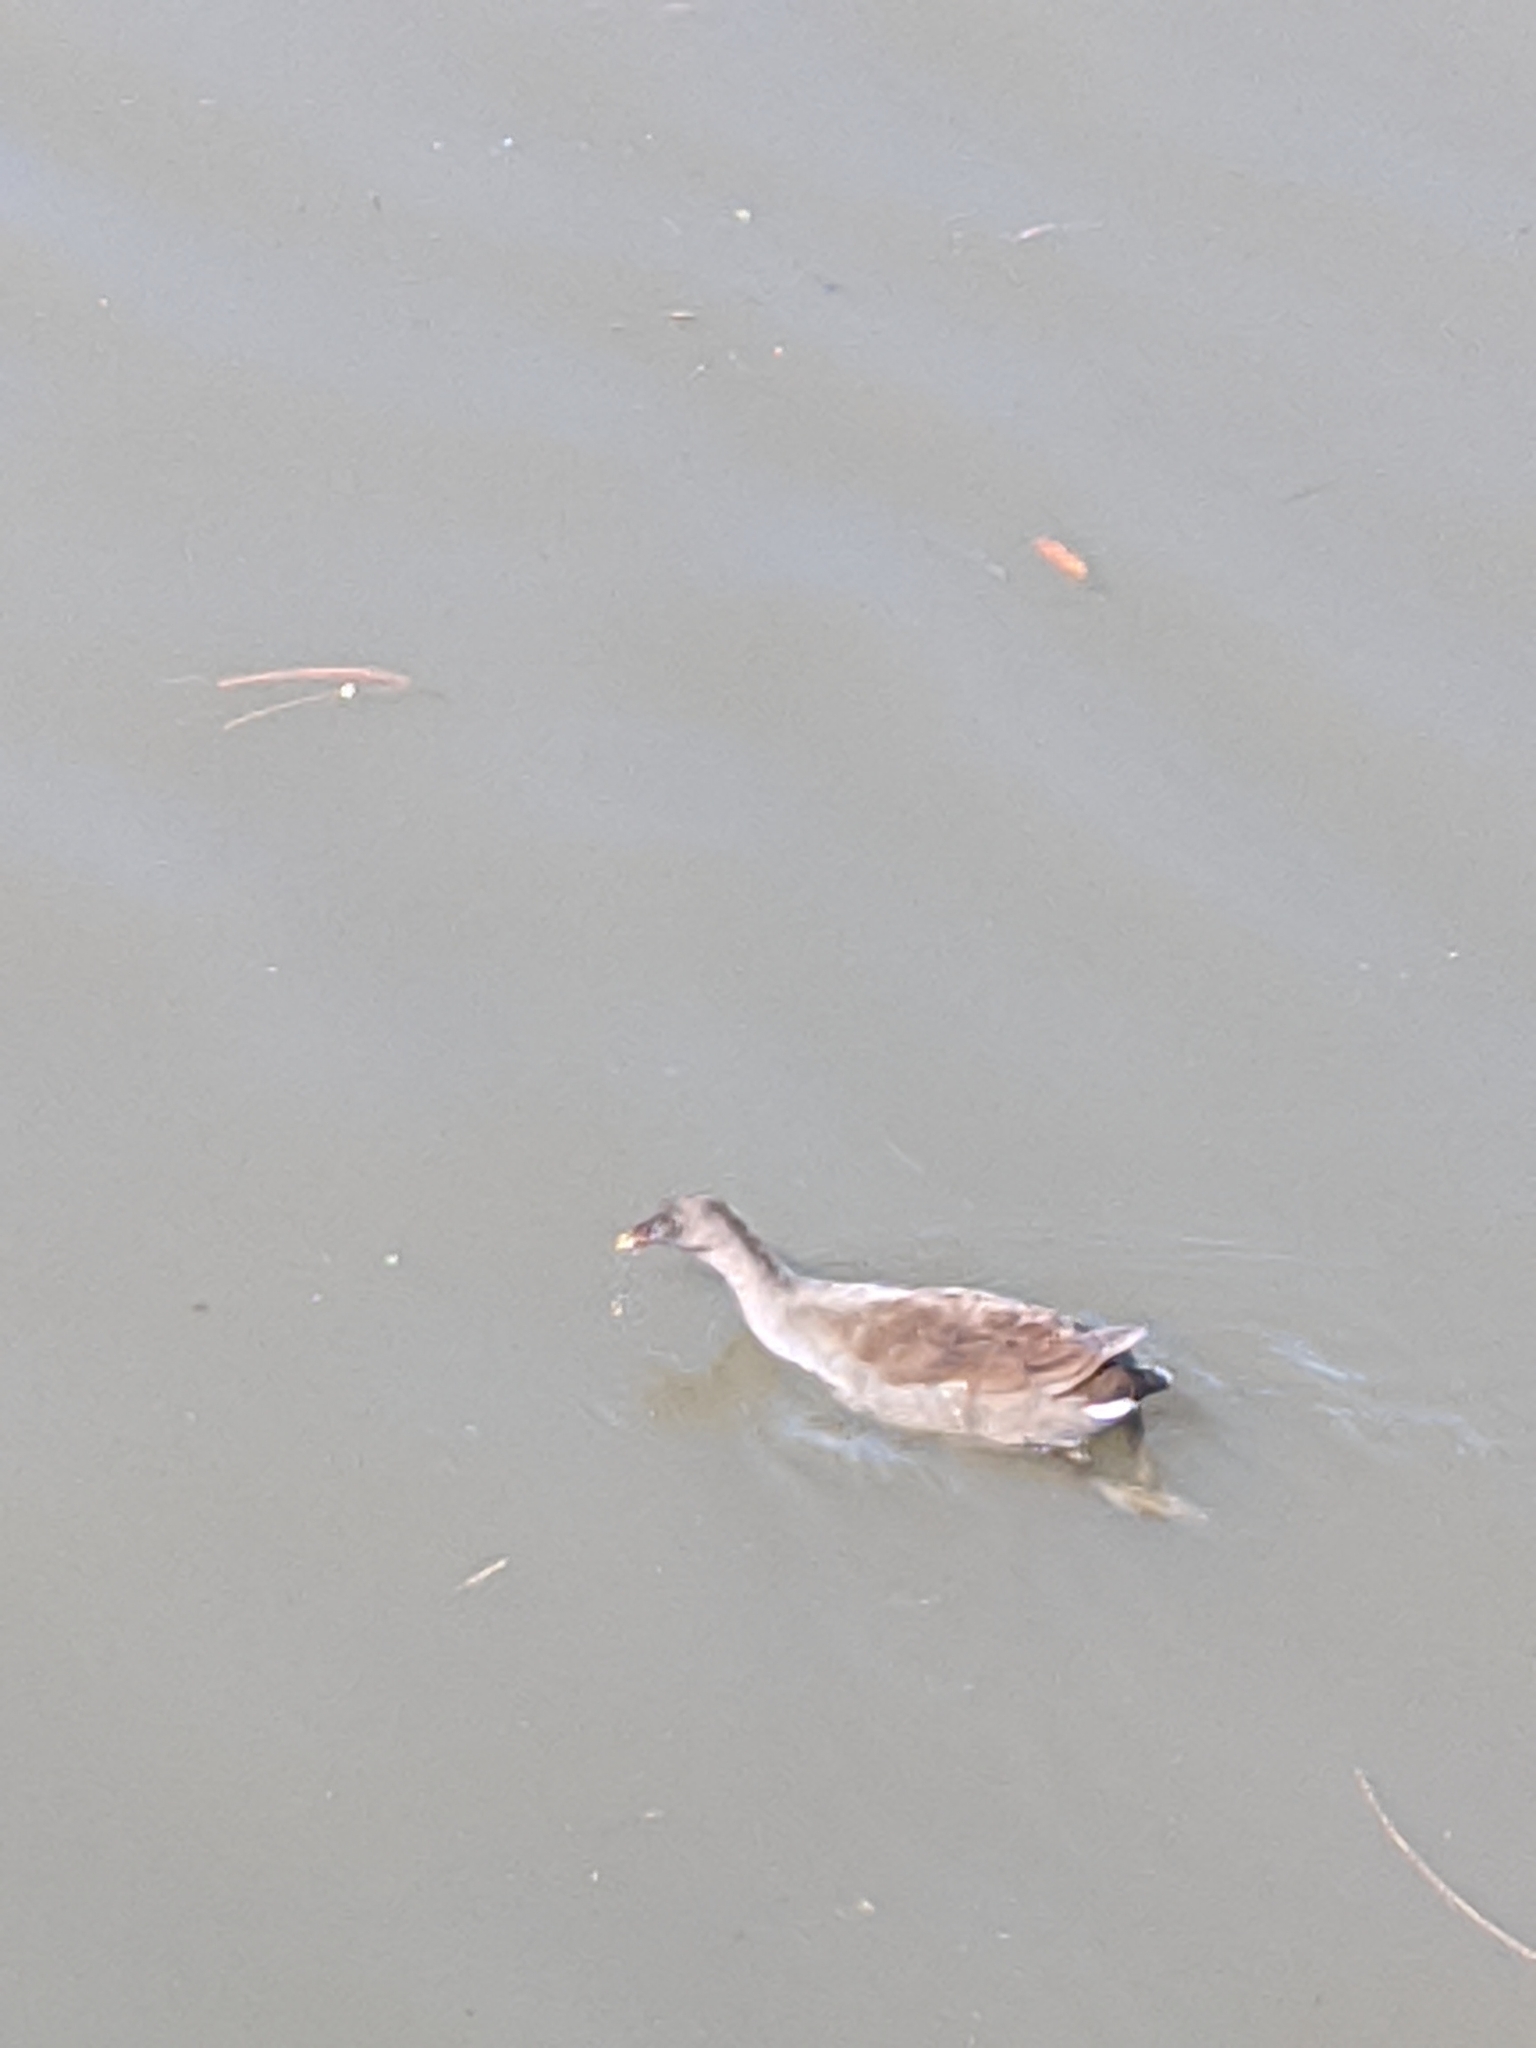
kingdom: Animalia
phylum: Chordata
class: Aves
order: Gruiformes
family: Rallidae
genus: Gallinula
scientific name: Gallinula tenebrosa
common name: Dusky moorhen
